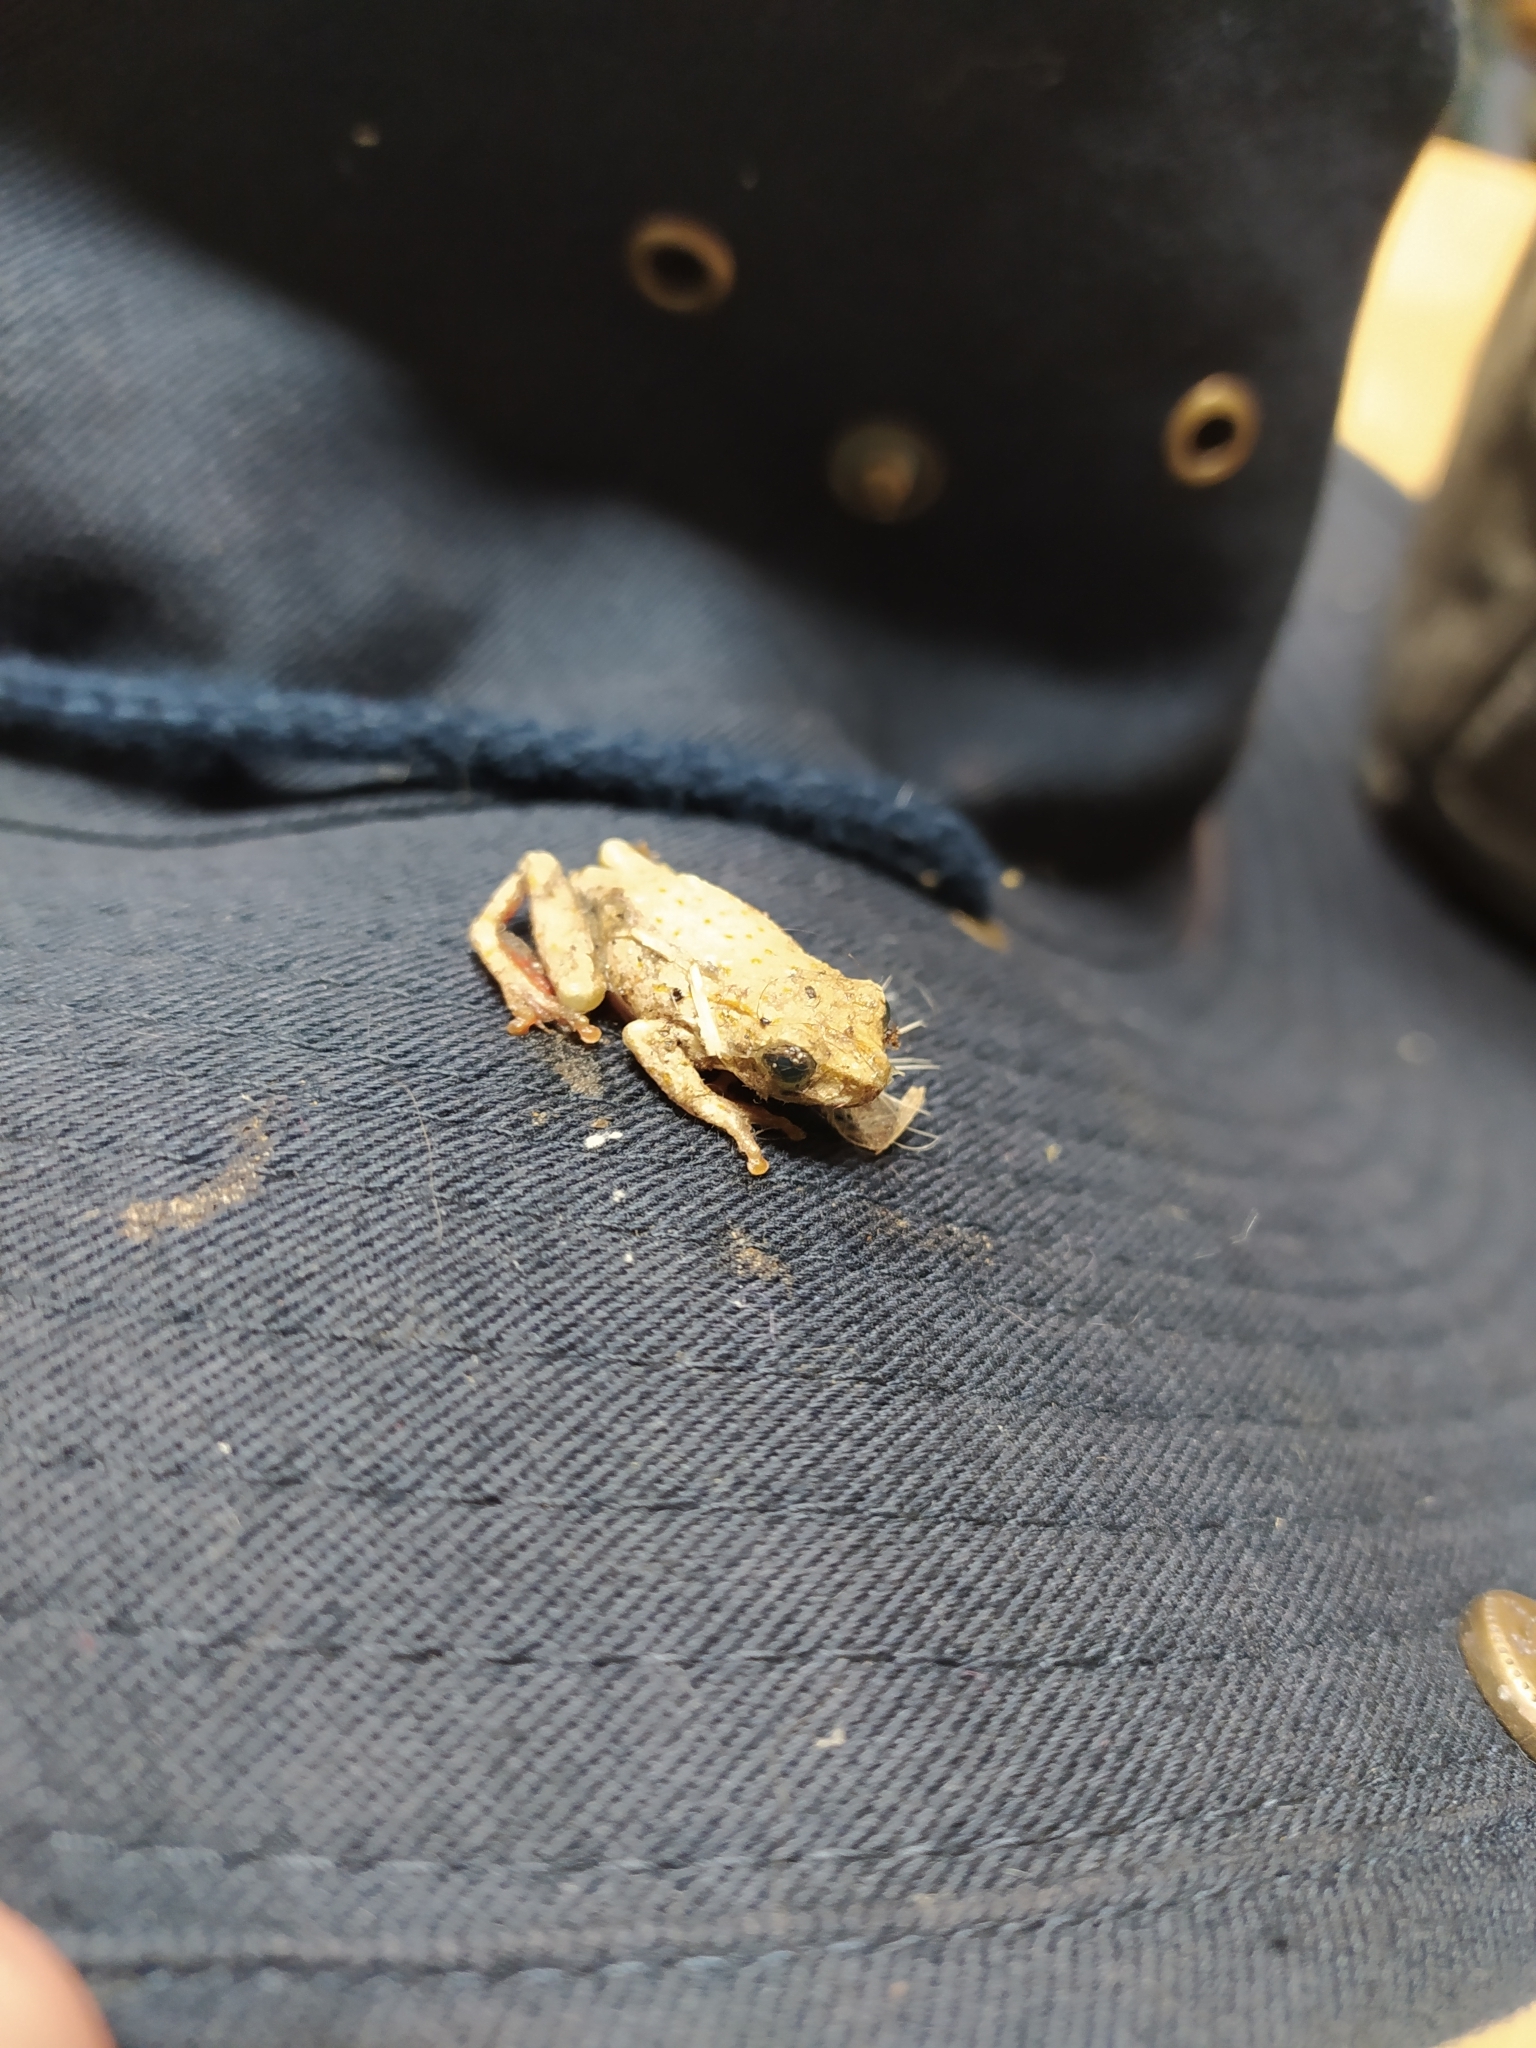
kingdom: Animalia
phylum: Chordata
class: Amphibia
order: Anura
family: Hyperoliidae
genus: Hyperolius
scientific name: Hyperolius marmoratus
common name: Painted reed frog
